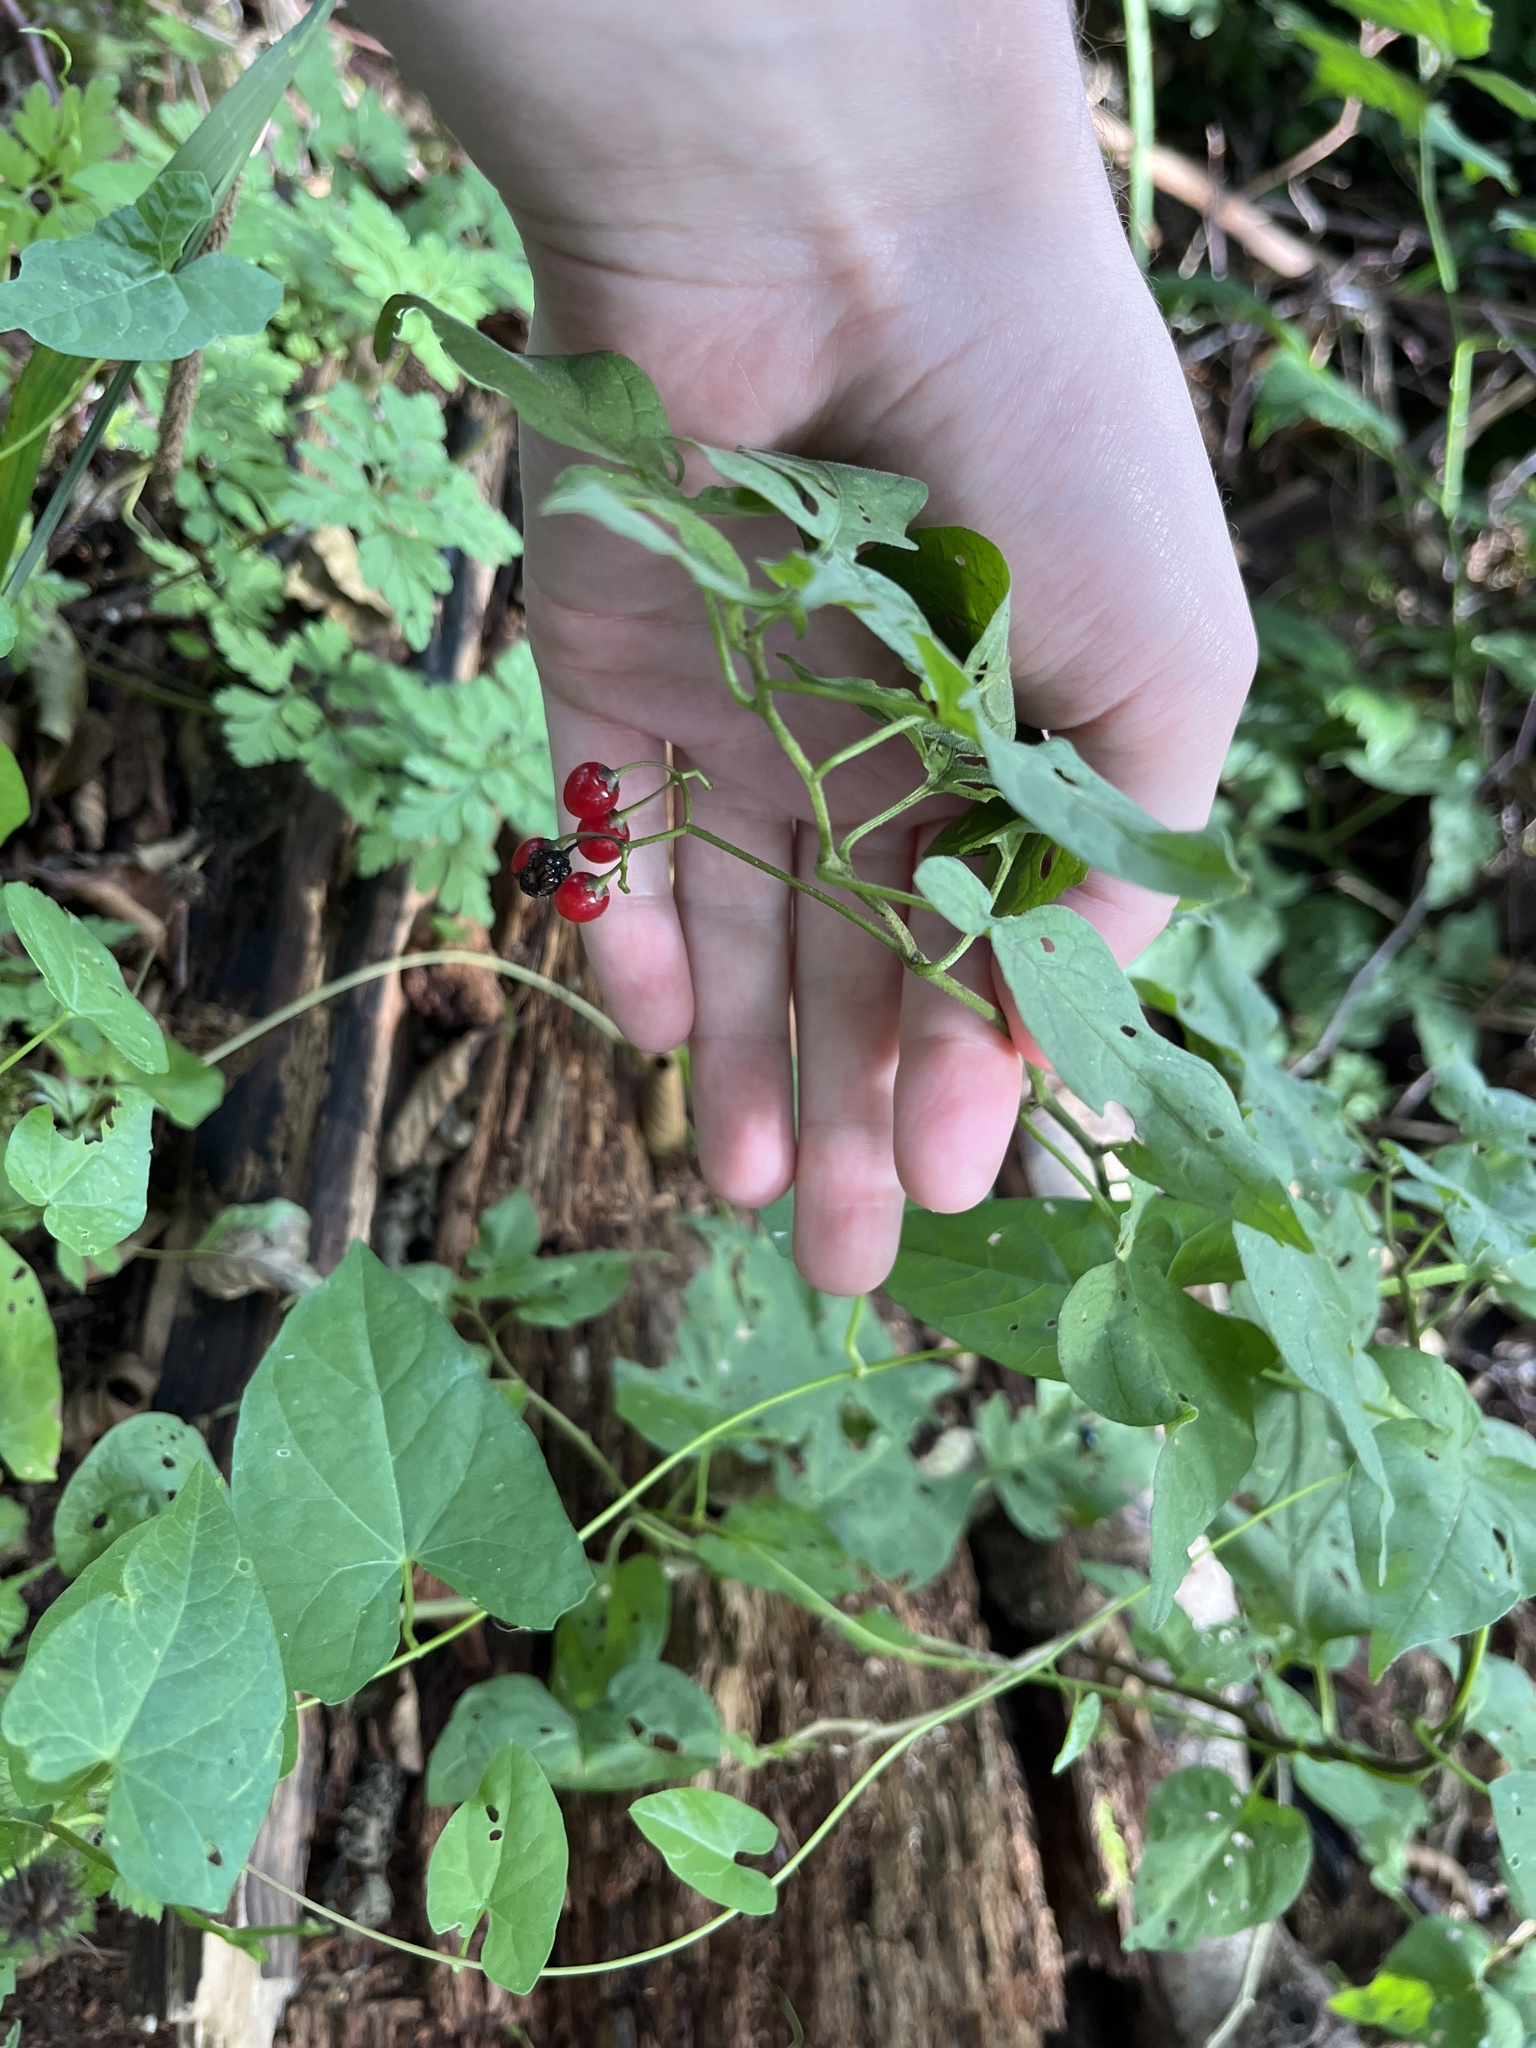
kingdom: Plantae
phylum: Tracheophyta
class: Magnoliopsida
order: Solanales
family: Solanaceae
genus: Solanum
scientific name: Solanum dulcamara
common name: Climbing nightshade
